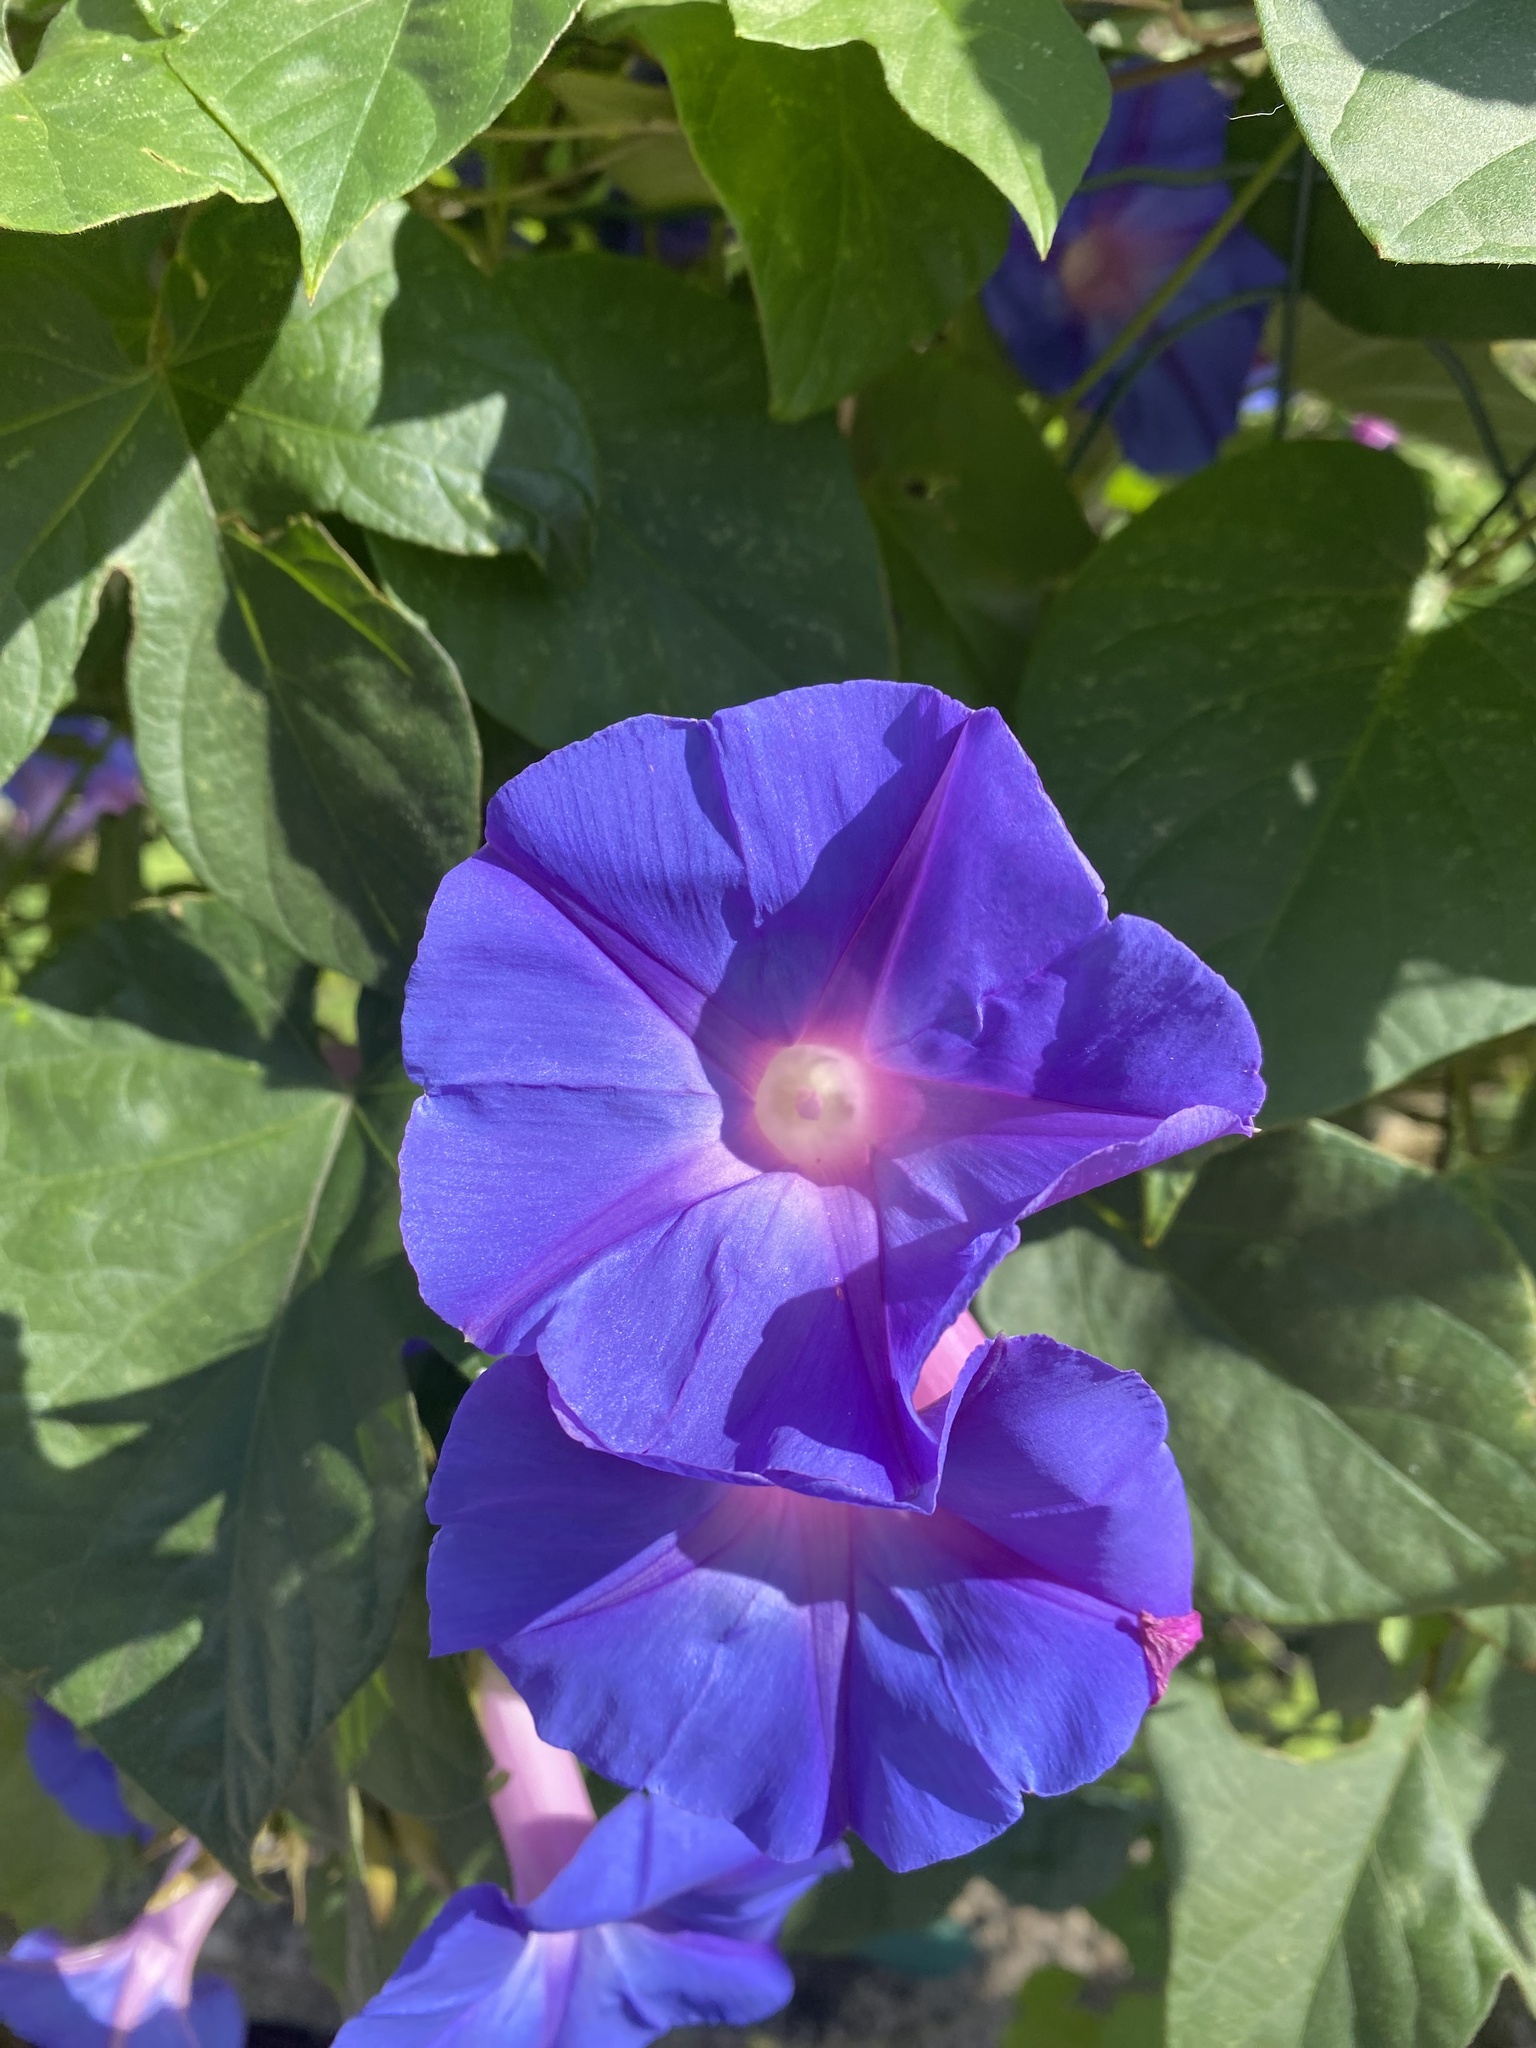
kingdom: Plantae
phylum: Tracheophyta
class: Magnoliopsida
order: Solanales
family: Convolvulaceae
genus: Ipomoea
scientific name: Ipomoea indica
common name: Blue dawnflower
